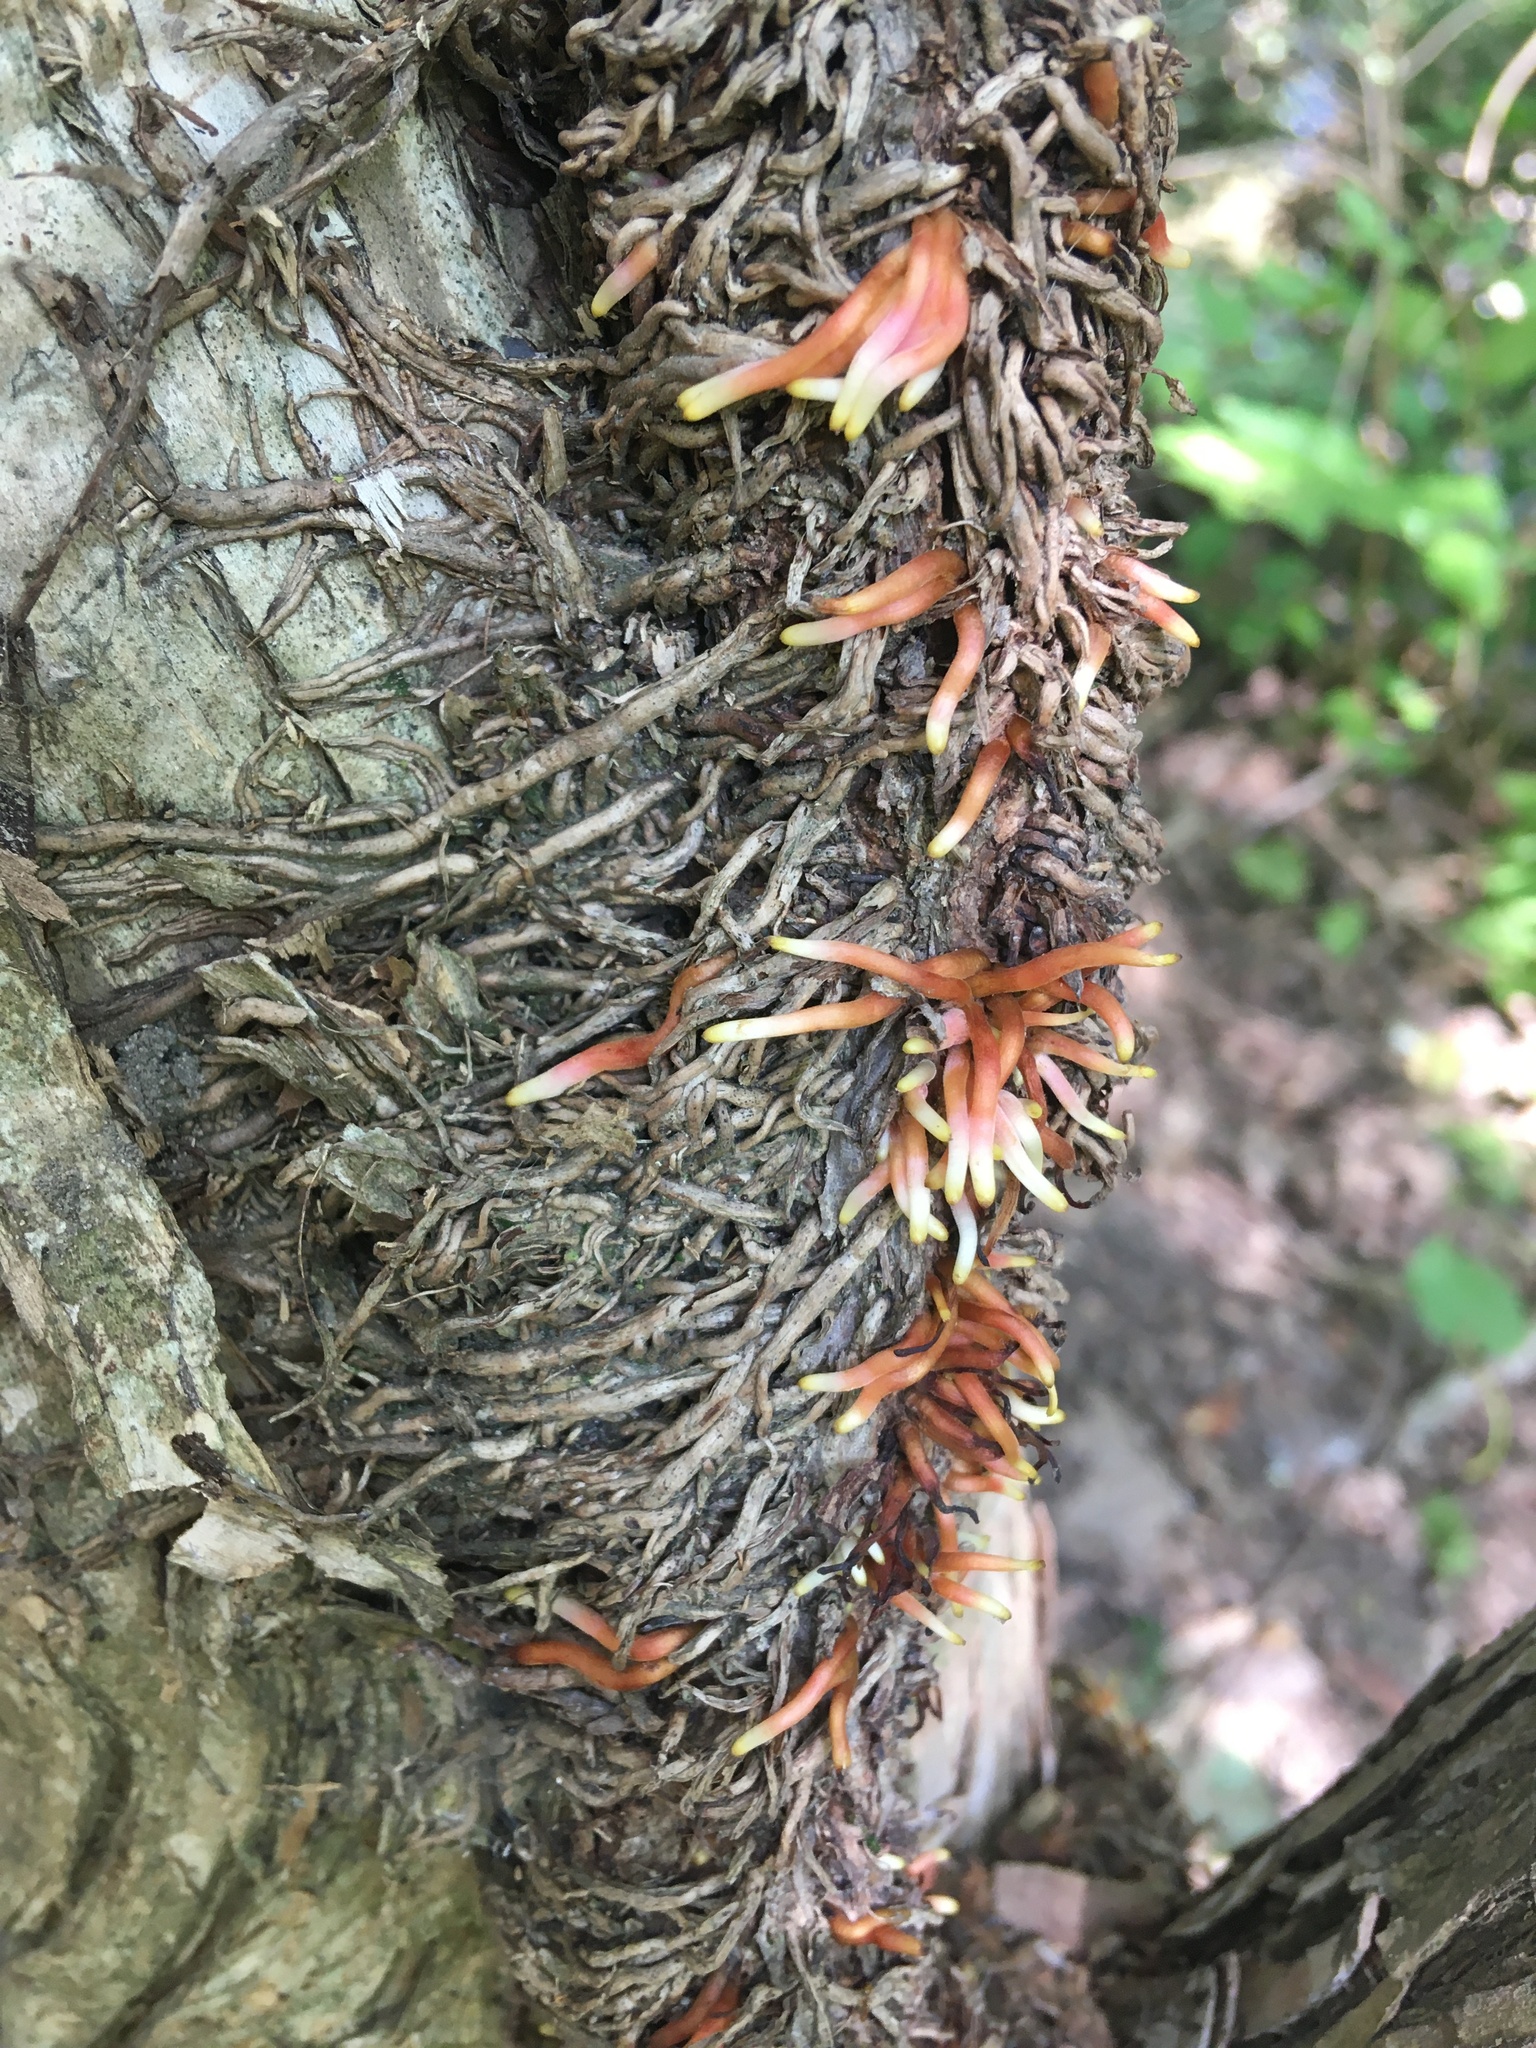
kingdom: Plantae
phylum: Tracheophyta
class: Magnoliopsida
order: Sapindales
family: Anacardiaceae
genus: Toxicodendron
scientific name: Toxicodendron radicans
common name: Poison ivy
